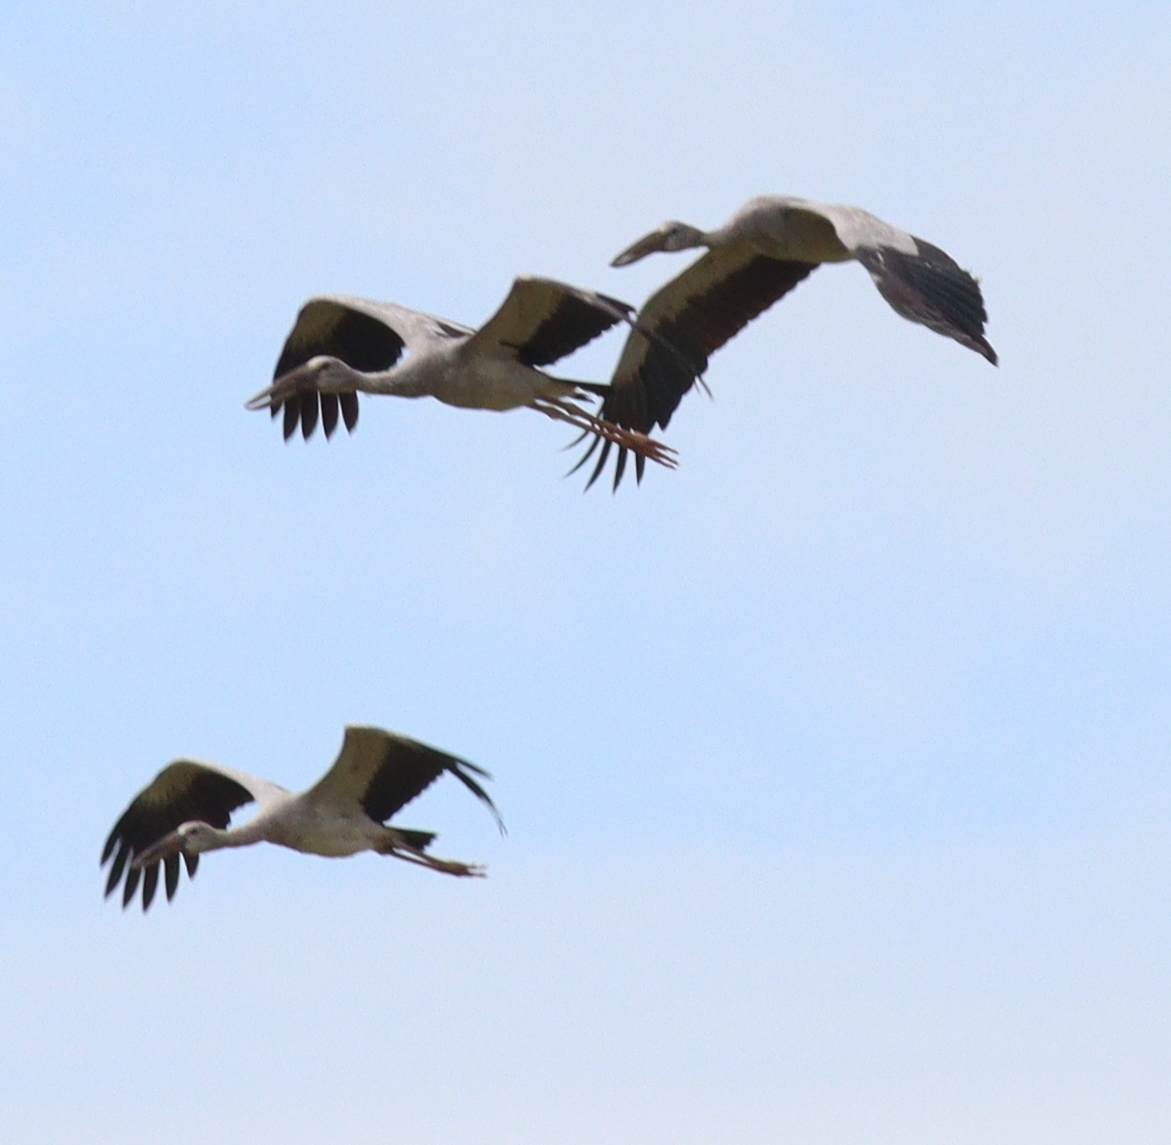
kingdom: Animalia
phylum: Chordata
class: Aves
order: Ciconiiformes
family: Ciconiidae
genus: Anastomus
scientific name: Anastomus oscitans
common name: Asian openbill
